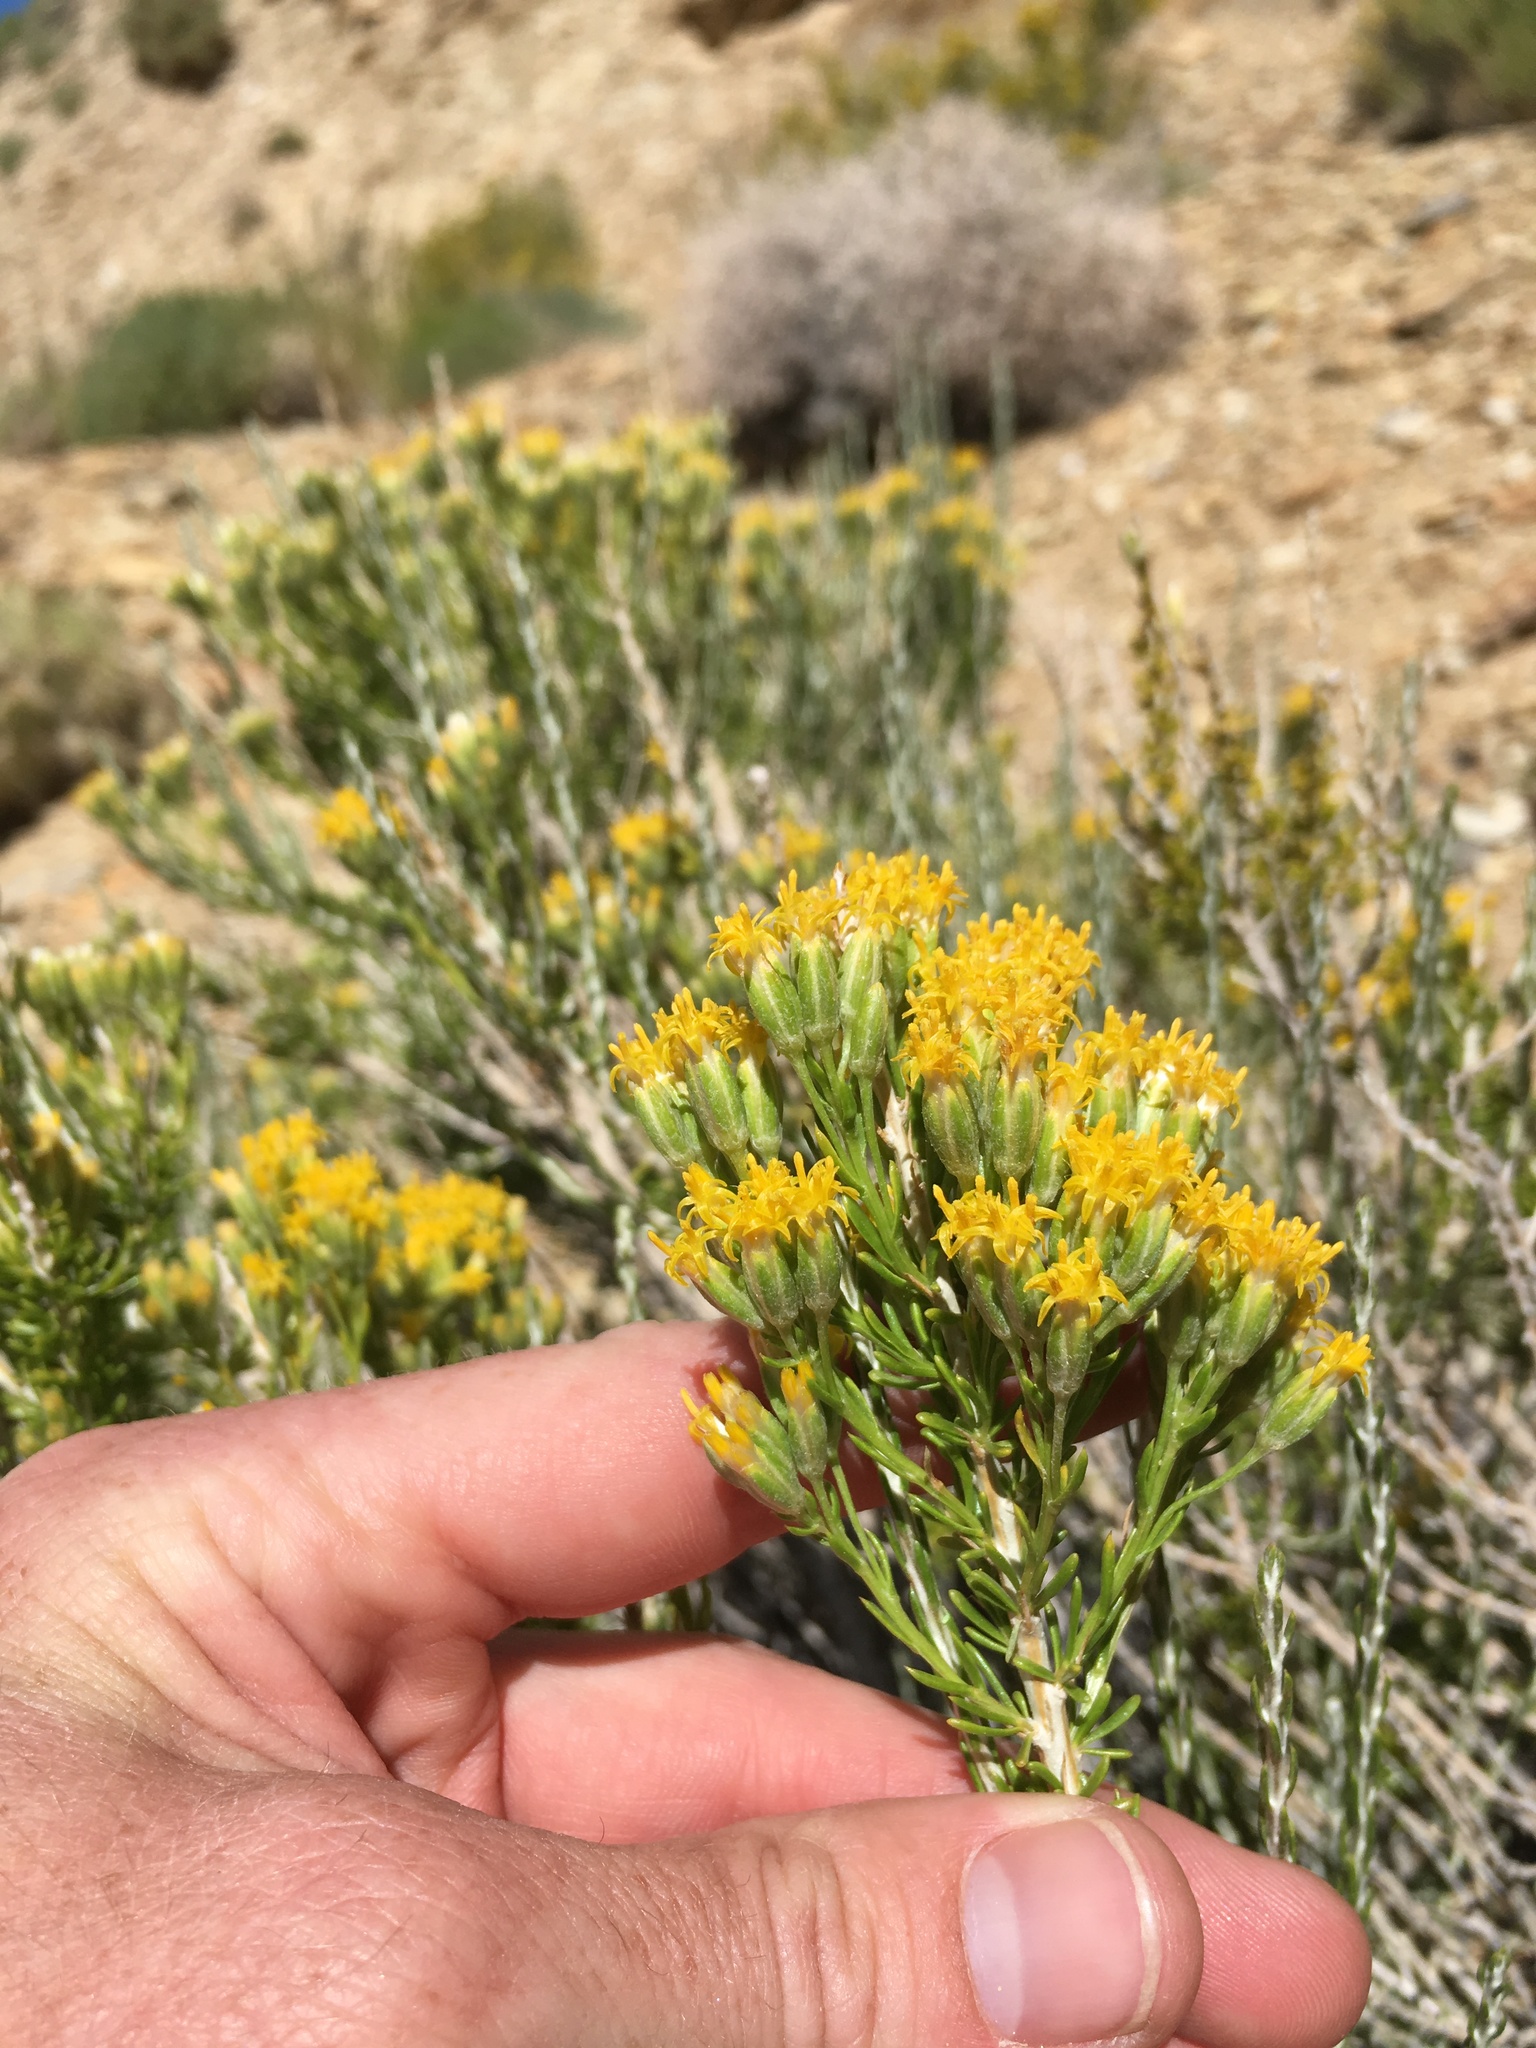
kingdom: Plantae
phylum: Tracheophyta
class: Magnoliopsida
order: Asterales
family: Asteraceae
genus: Tetradymia
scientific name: Tetradymia glabrata
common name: Smooth tetradymia
